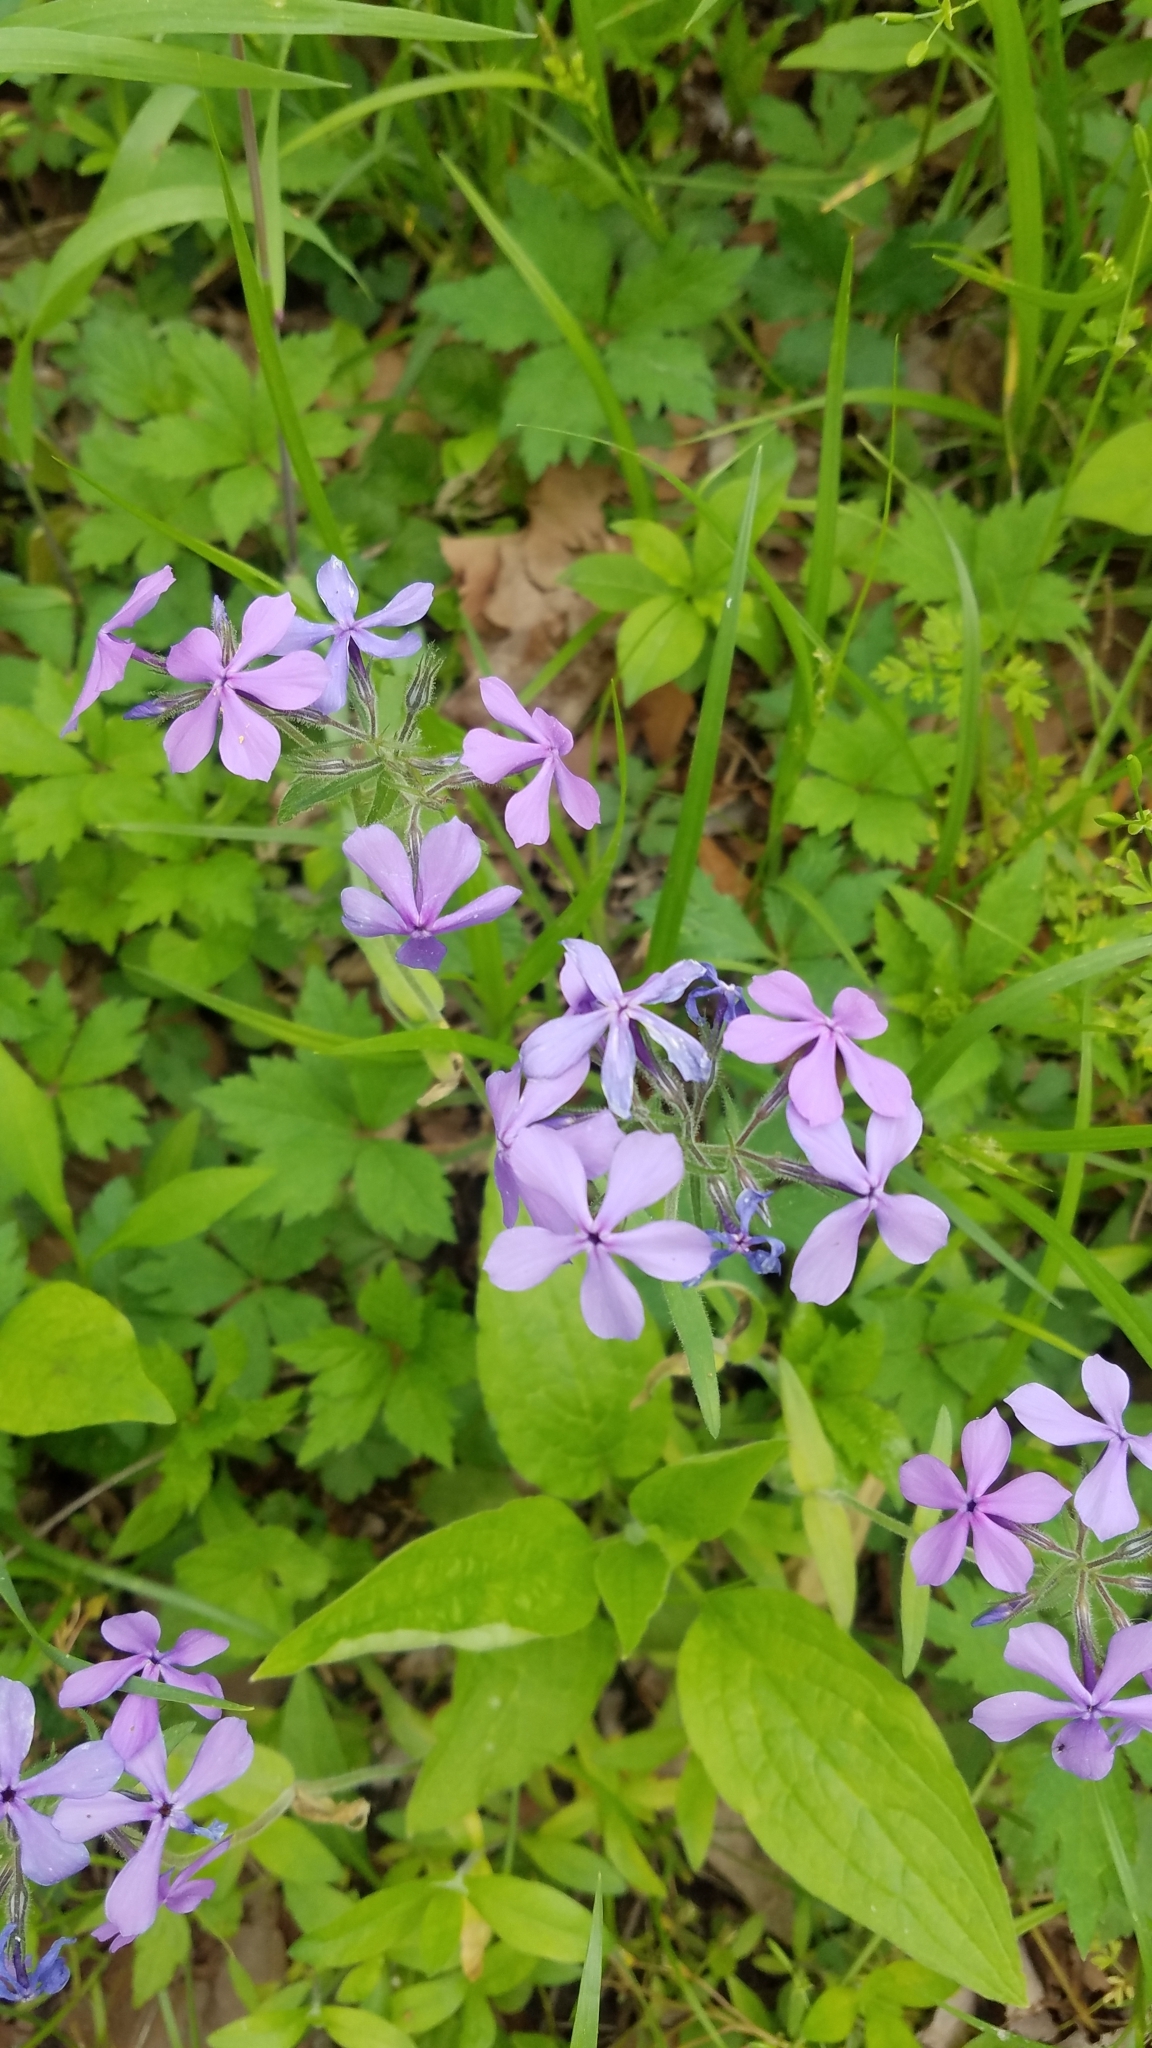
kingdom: Plantae
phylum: Tracheophyta
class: Magnoliopsida
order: Ericales
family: Polemoniaceae
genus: Phlox
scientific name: Phlox divaricata
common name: Blue phlox
